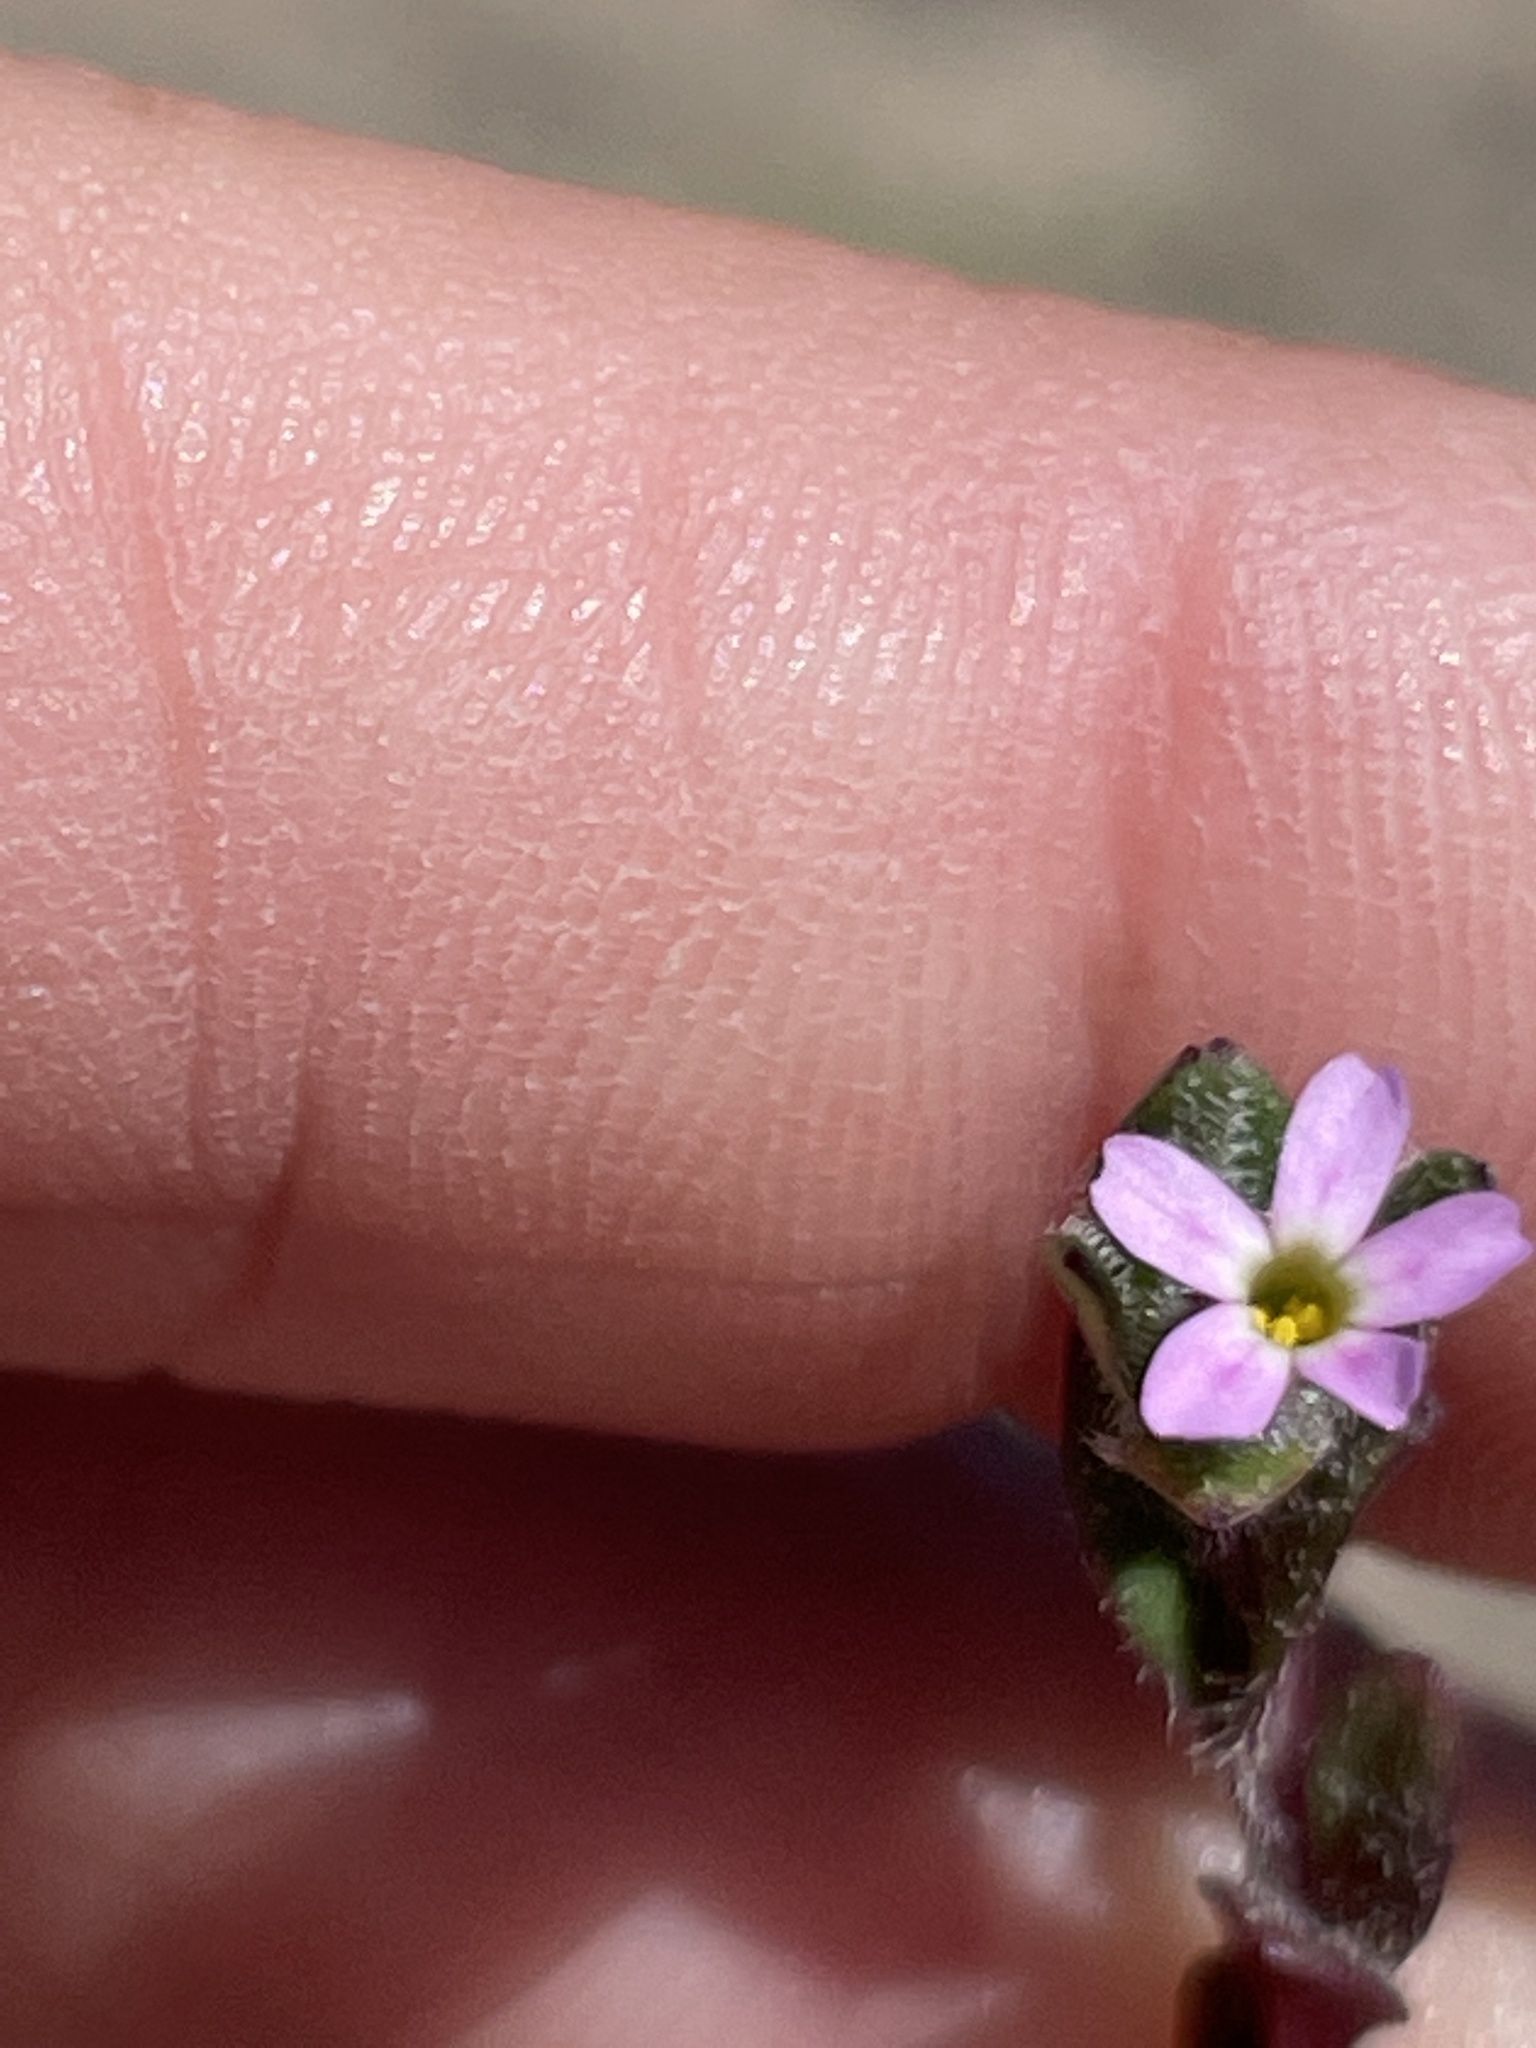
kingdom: Plantae
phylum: Tracheophyta
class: Magnoliopsida
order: Ericales
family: Polemoniaceae
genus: Phlox
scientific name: Phlox gracilis
